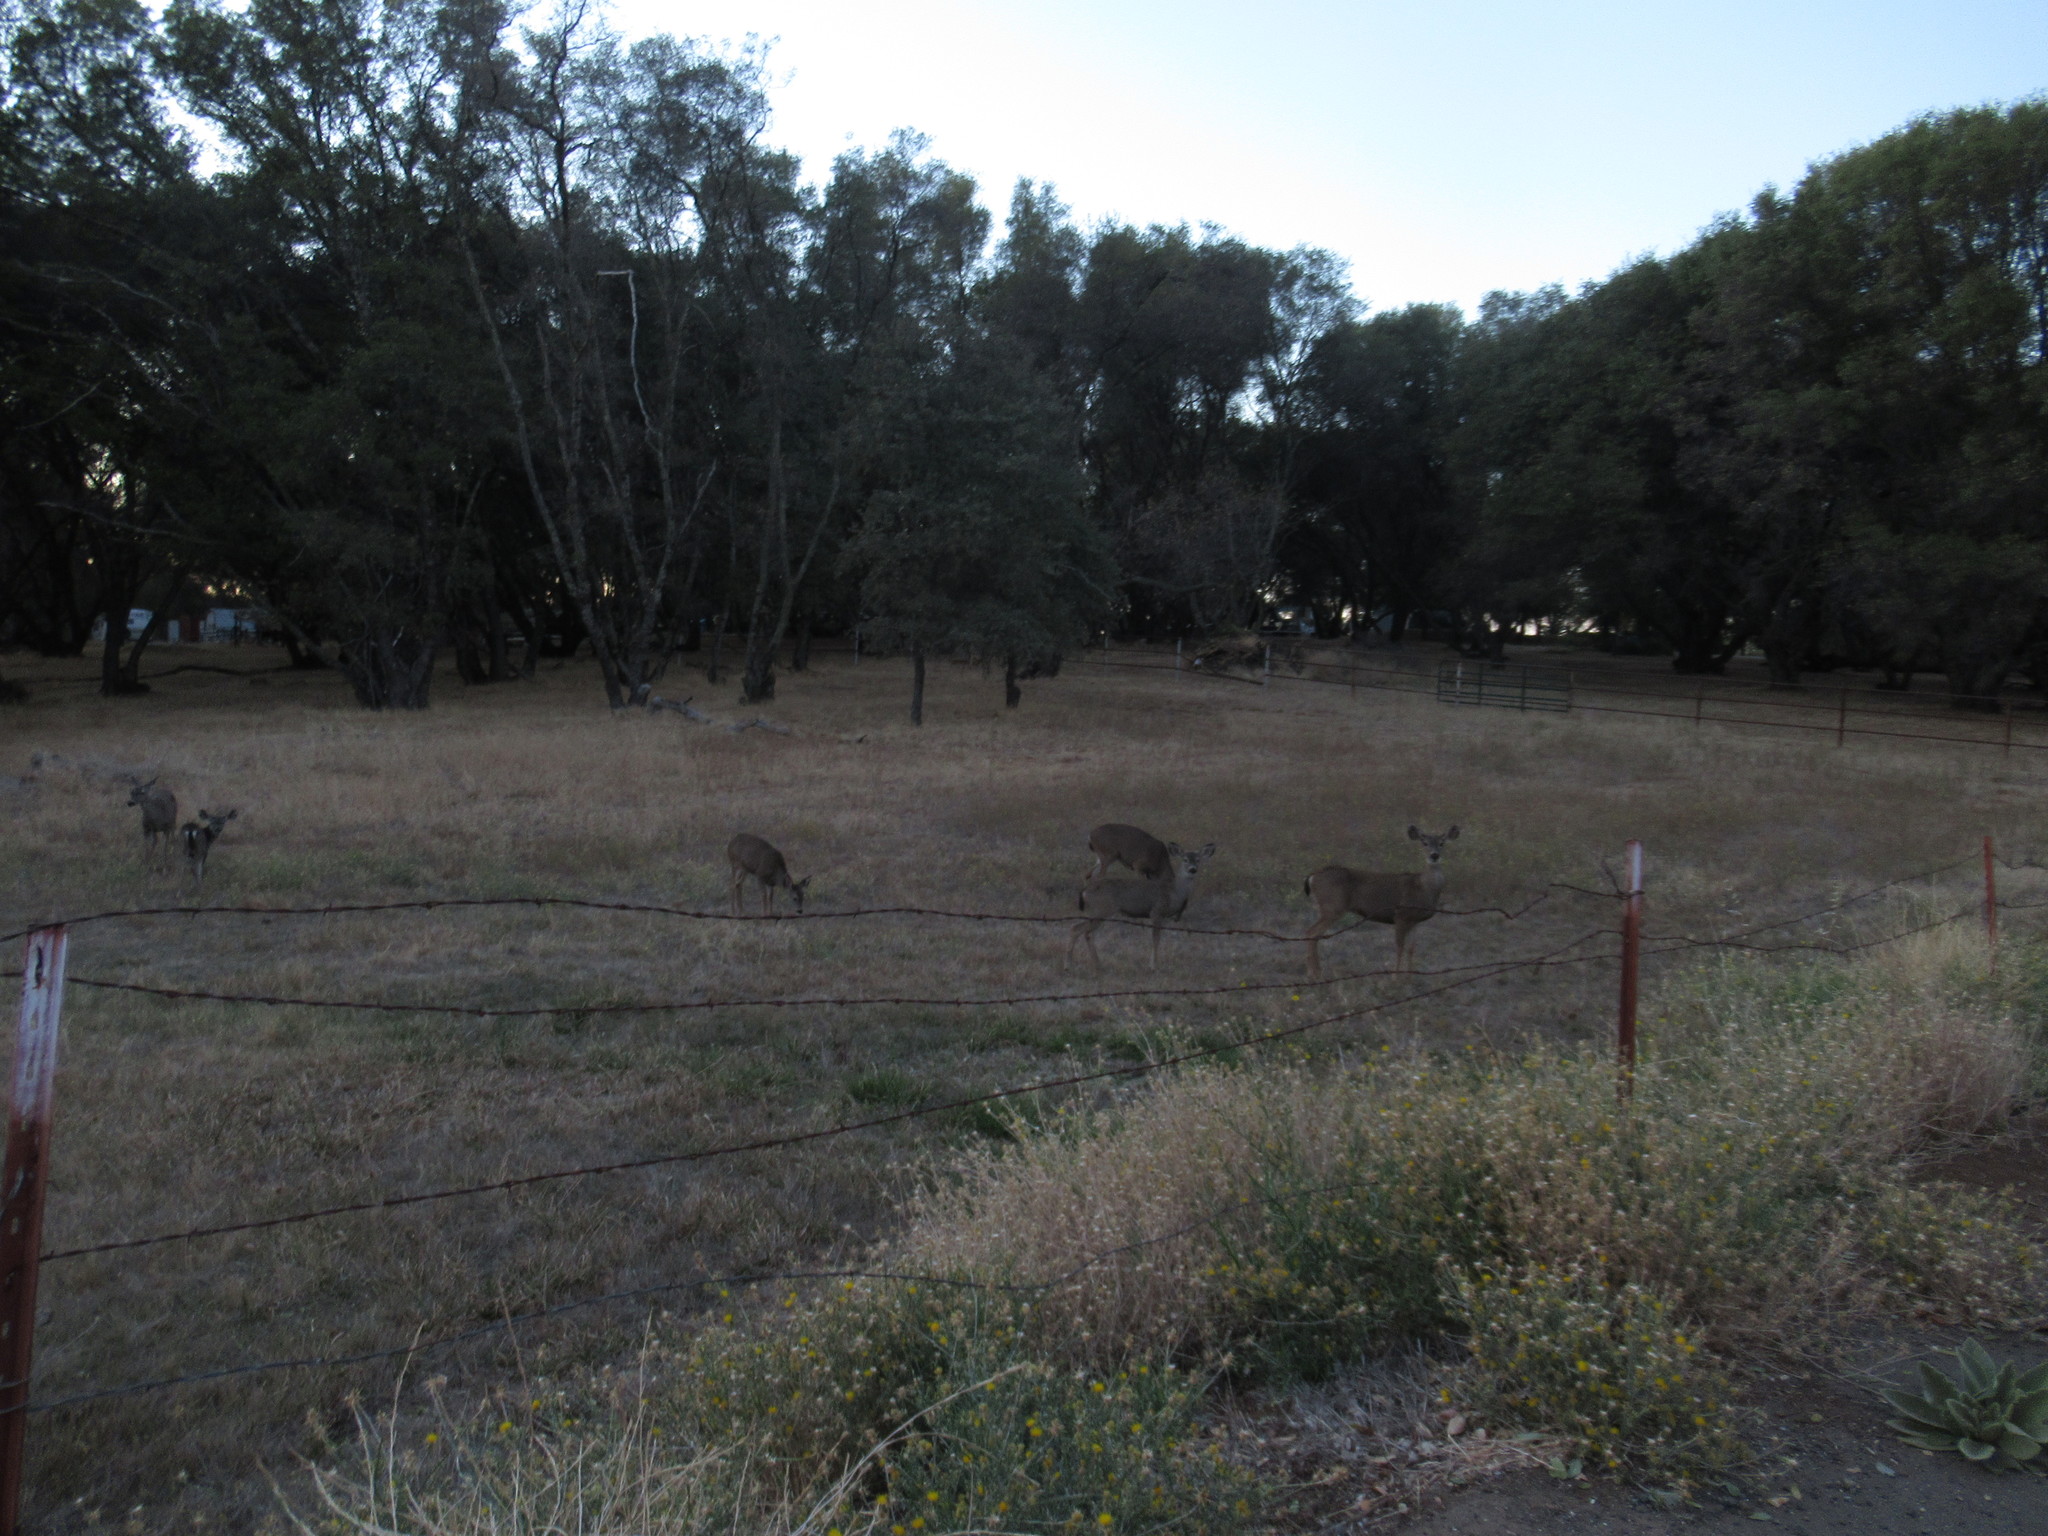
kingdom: Animalia
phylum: Chordata
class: Mammalia
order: Artiodactyla
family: Cervidae
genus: Odocoileus
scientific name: Odocoileus hemionus
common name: Mule deer
